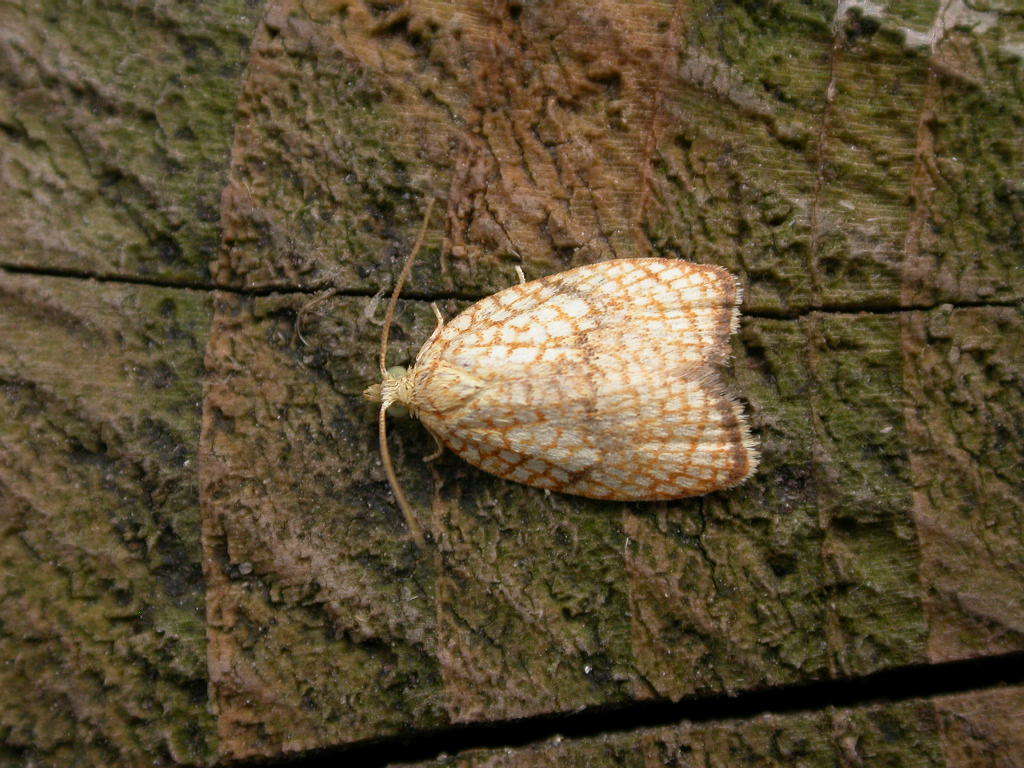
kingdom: Animalia
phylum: Arthropoda
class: Insecta
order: Lepidoptera
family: Tortricidae
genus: Acleris
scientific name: Acleris forsskaleana
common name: Maple button
